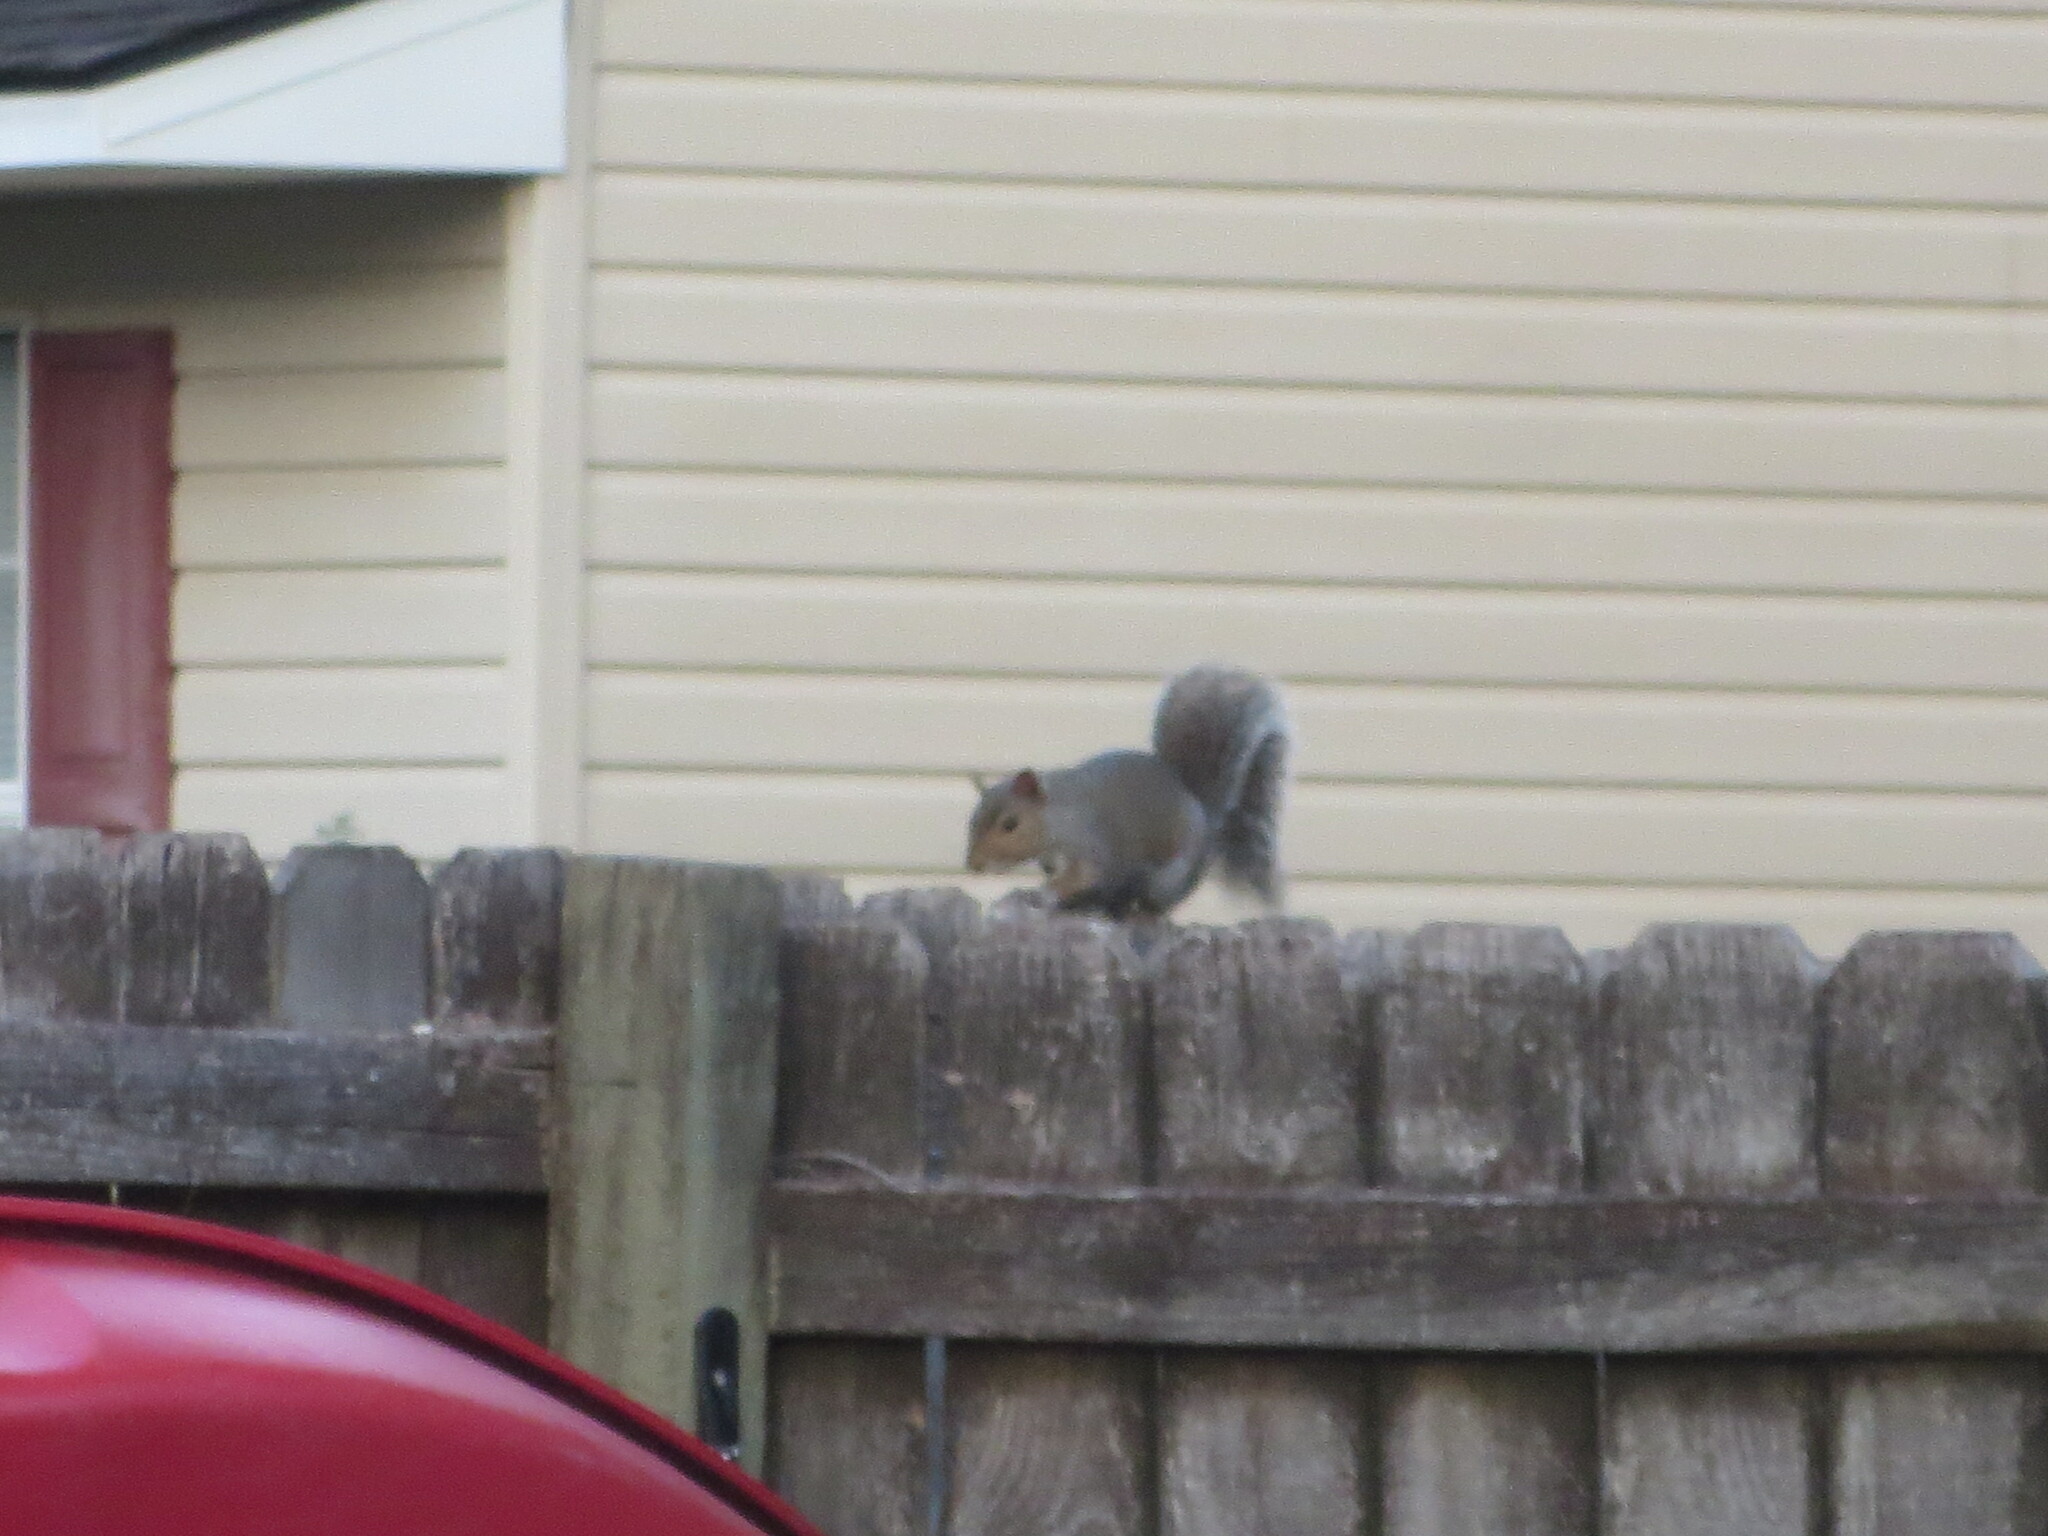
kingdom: Animalia
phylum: Chordata
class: Mammalia
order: Rodentia
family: Sciuridae
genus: Sciurus
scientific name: Sciurus carolinensis
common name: Eastern gray squirrel
